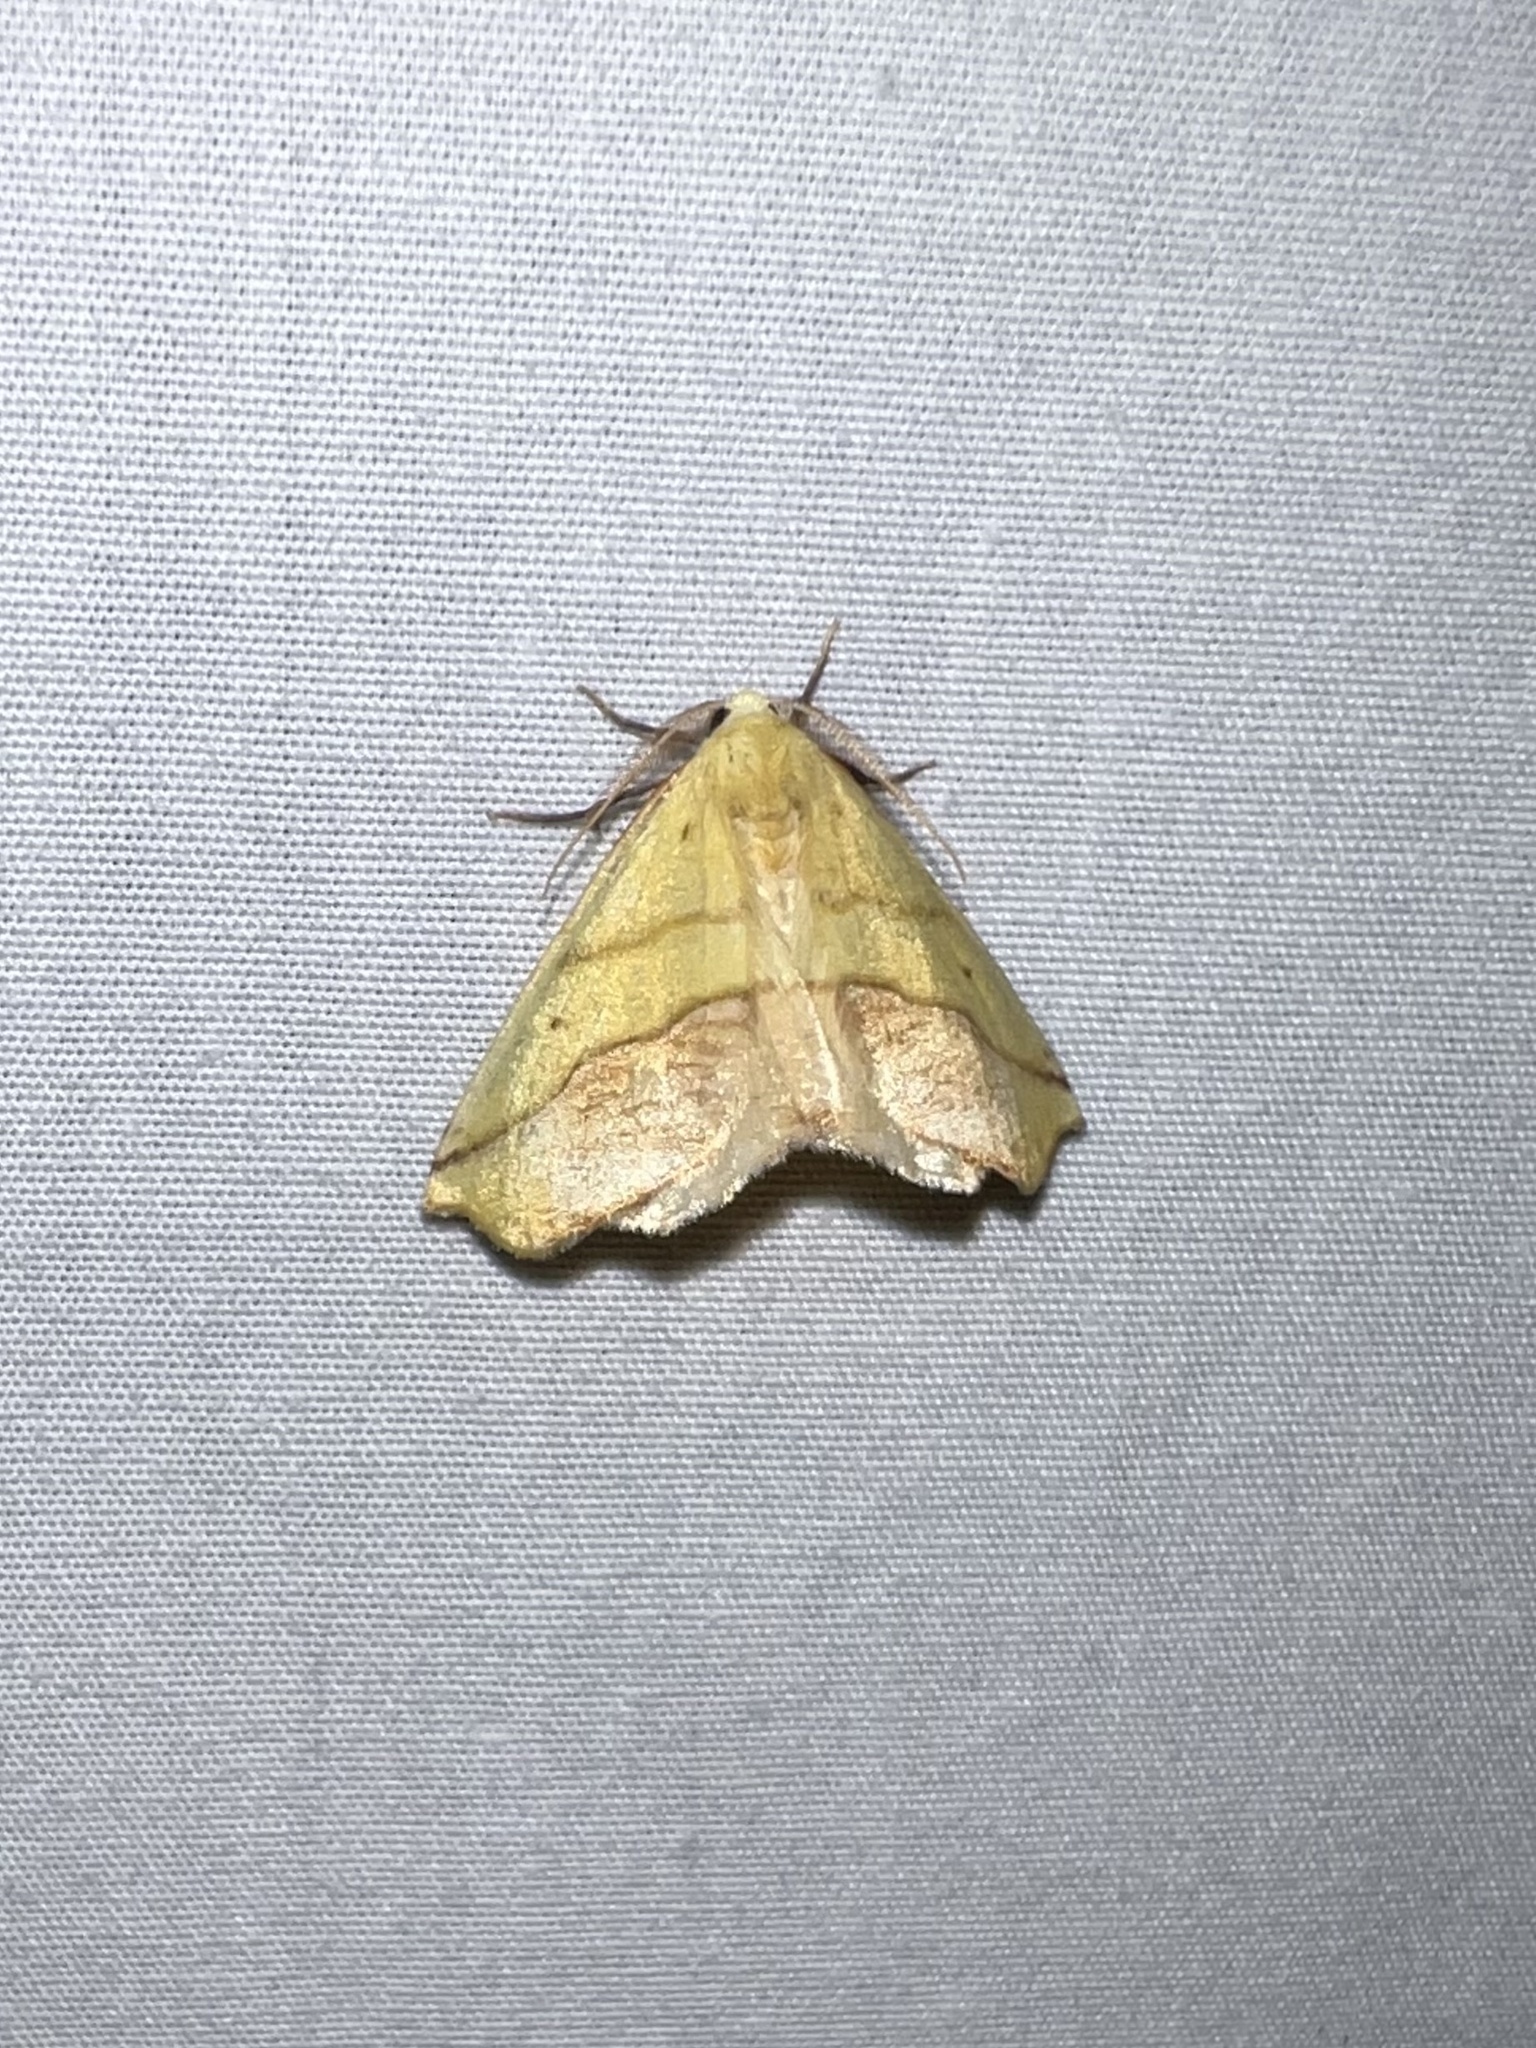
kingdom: Animalia
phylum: Arthropoda
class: Insecta
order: Lepidoptera
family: Geometridae
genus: Sicya
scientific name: Sicya macularia
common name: Sharp-lined yellow
